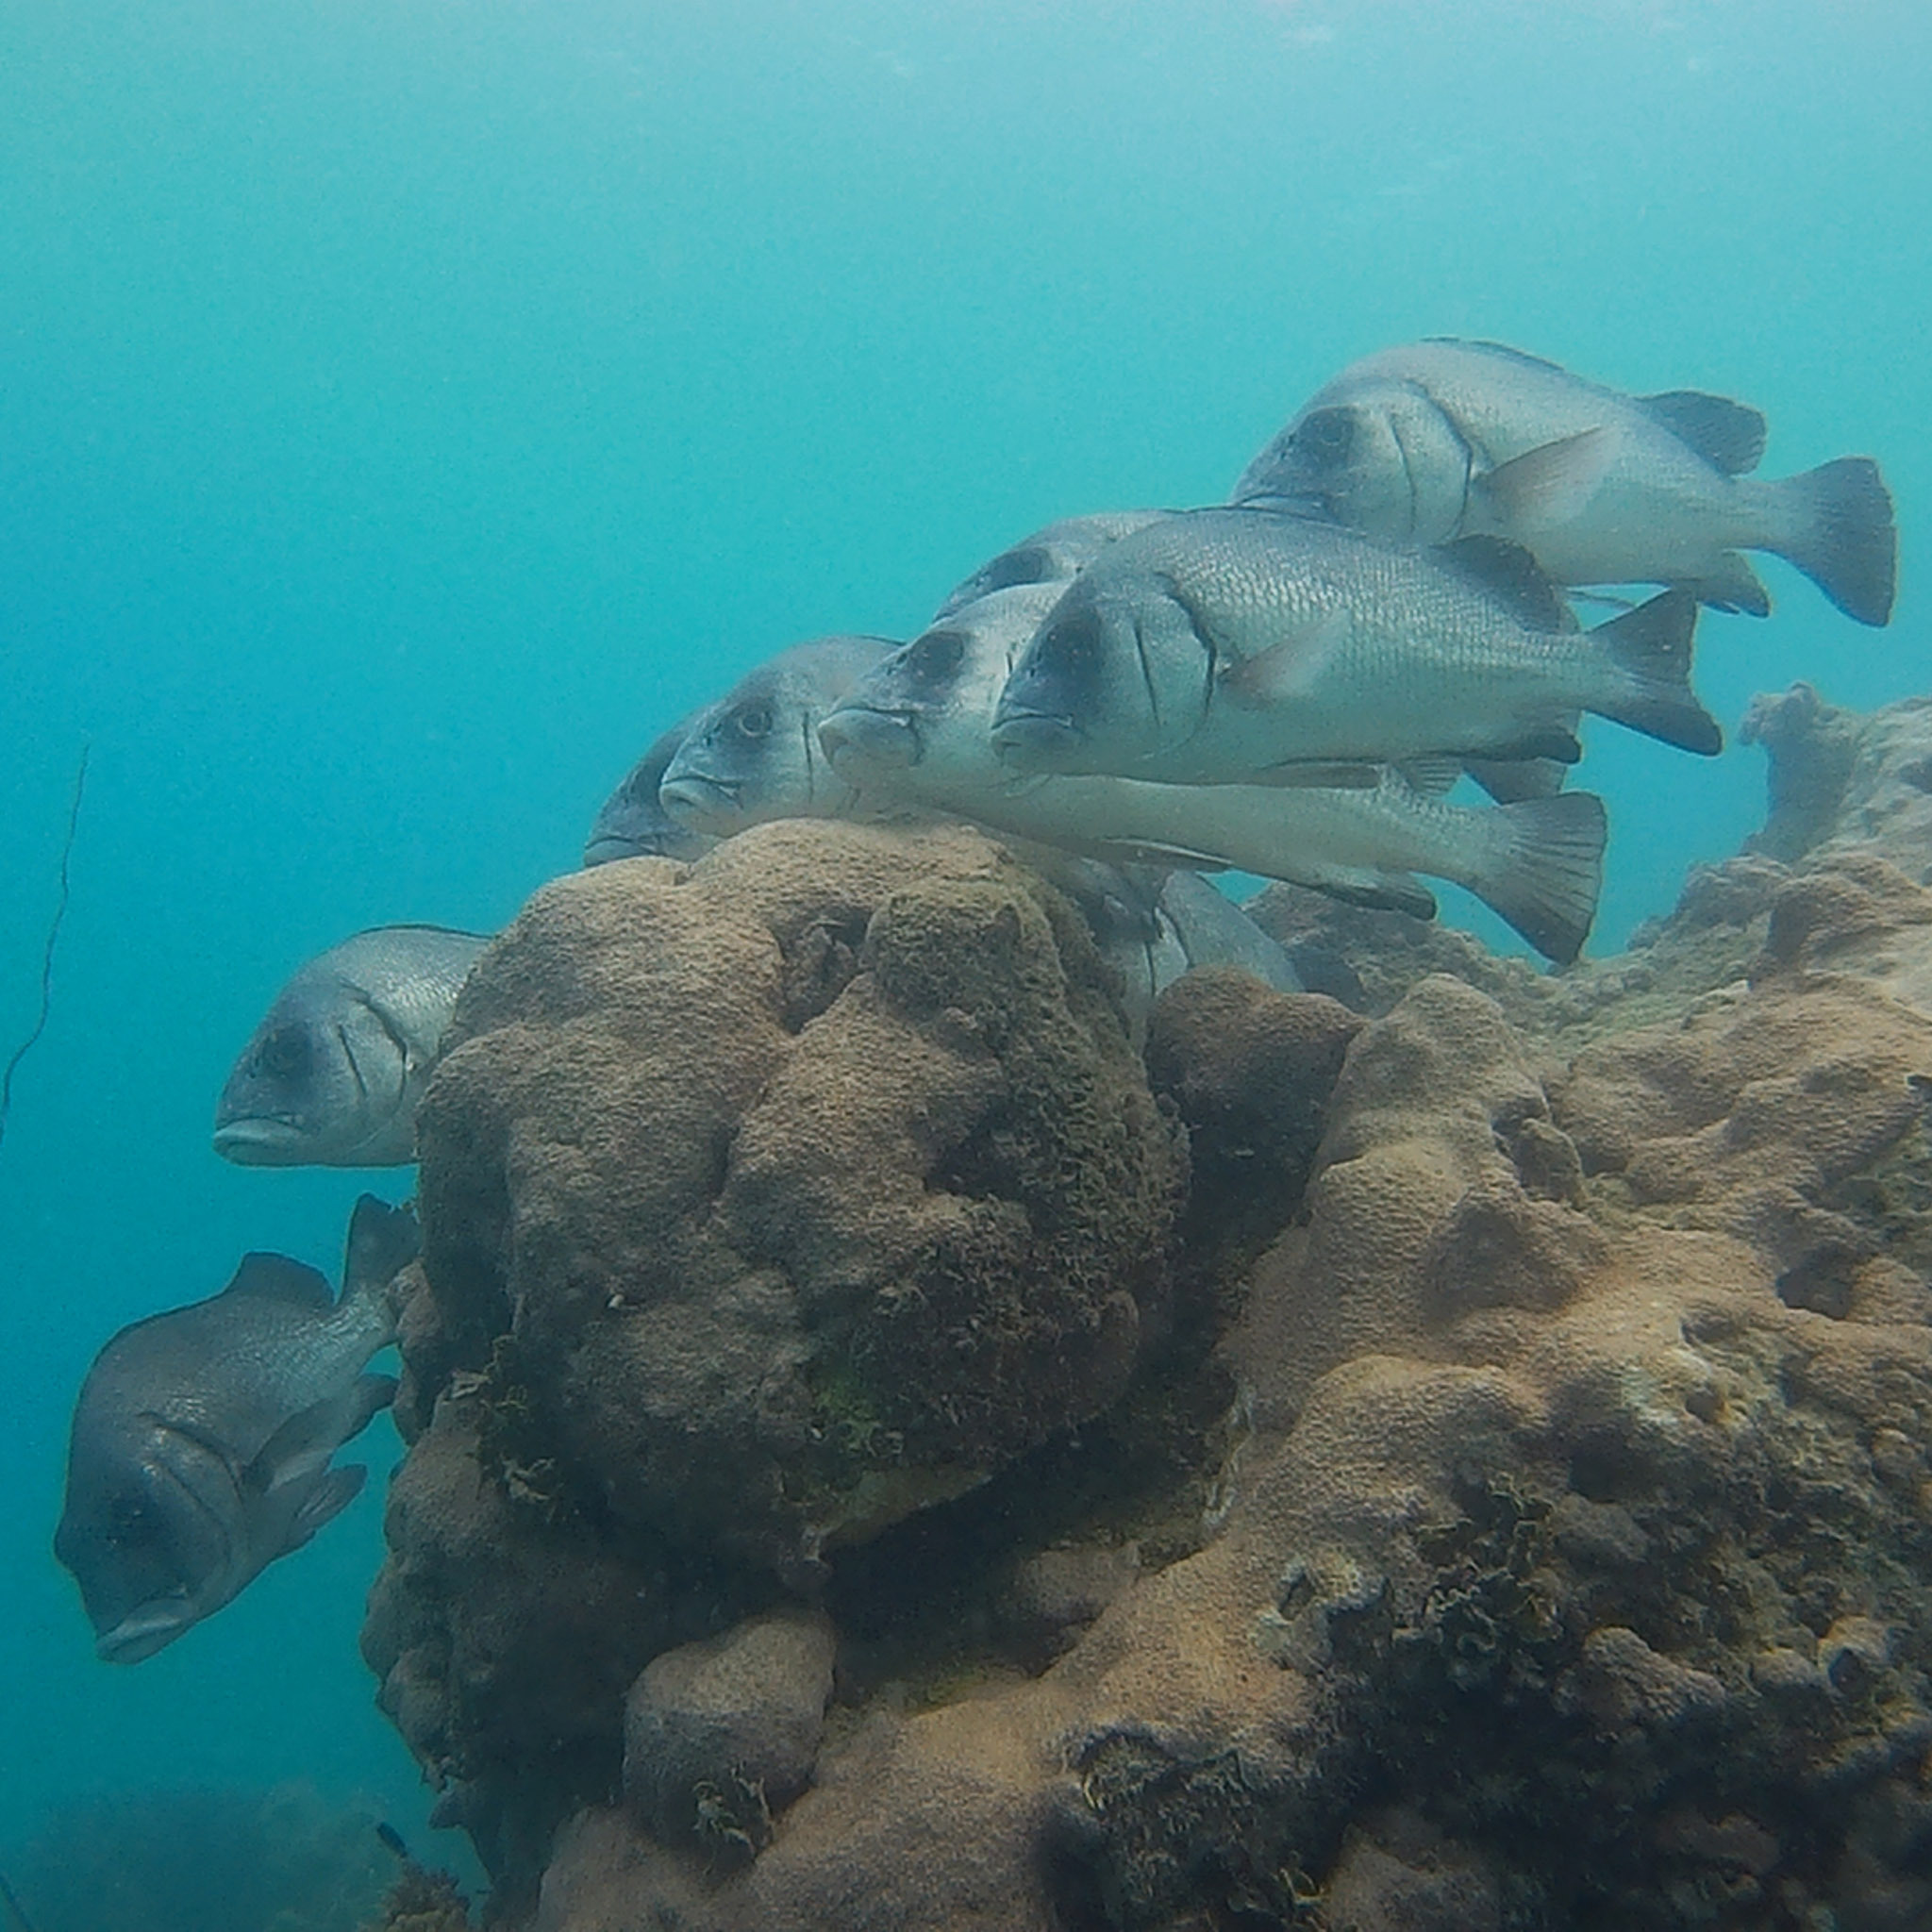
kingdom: Animalia
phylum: Chordata
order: Perciformes
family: Haemulidae
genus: Plectorhinchus
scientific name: Plectorhinchus gibbosus
